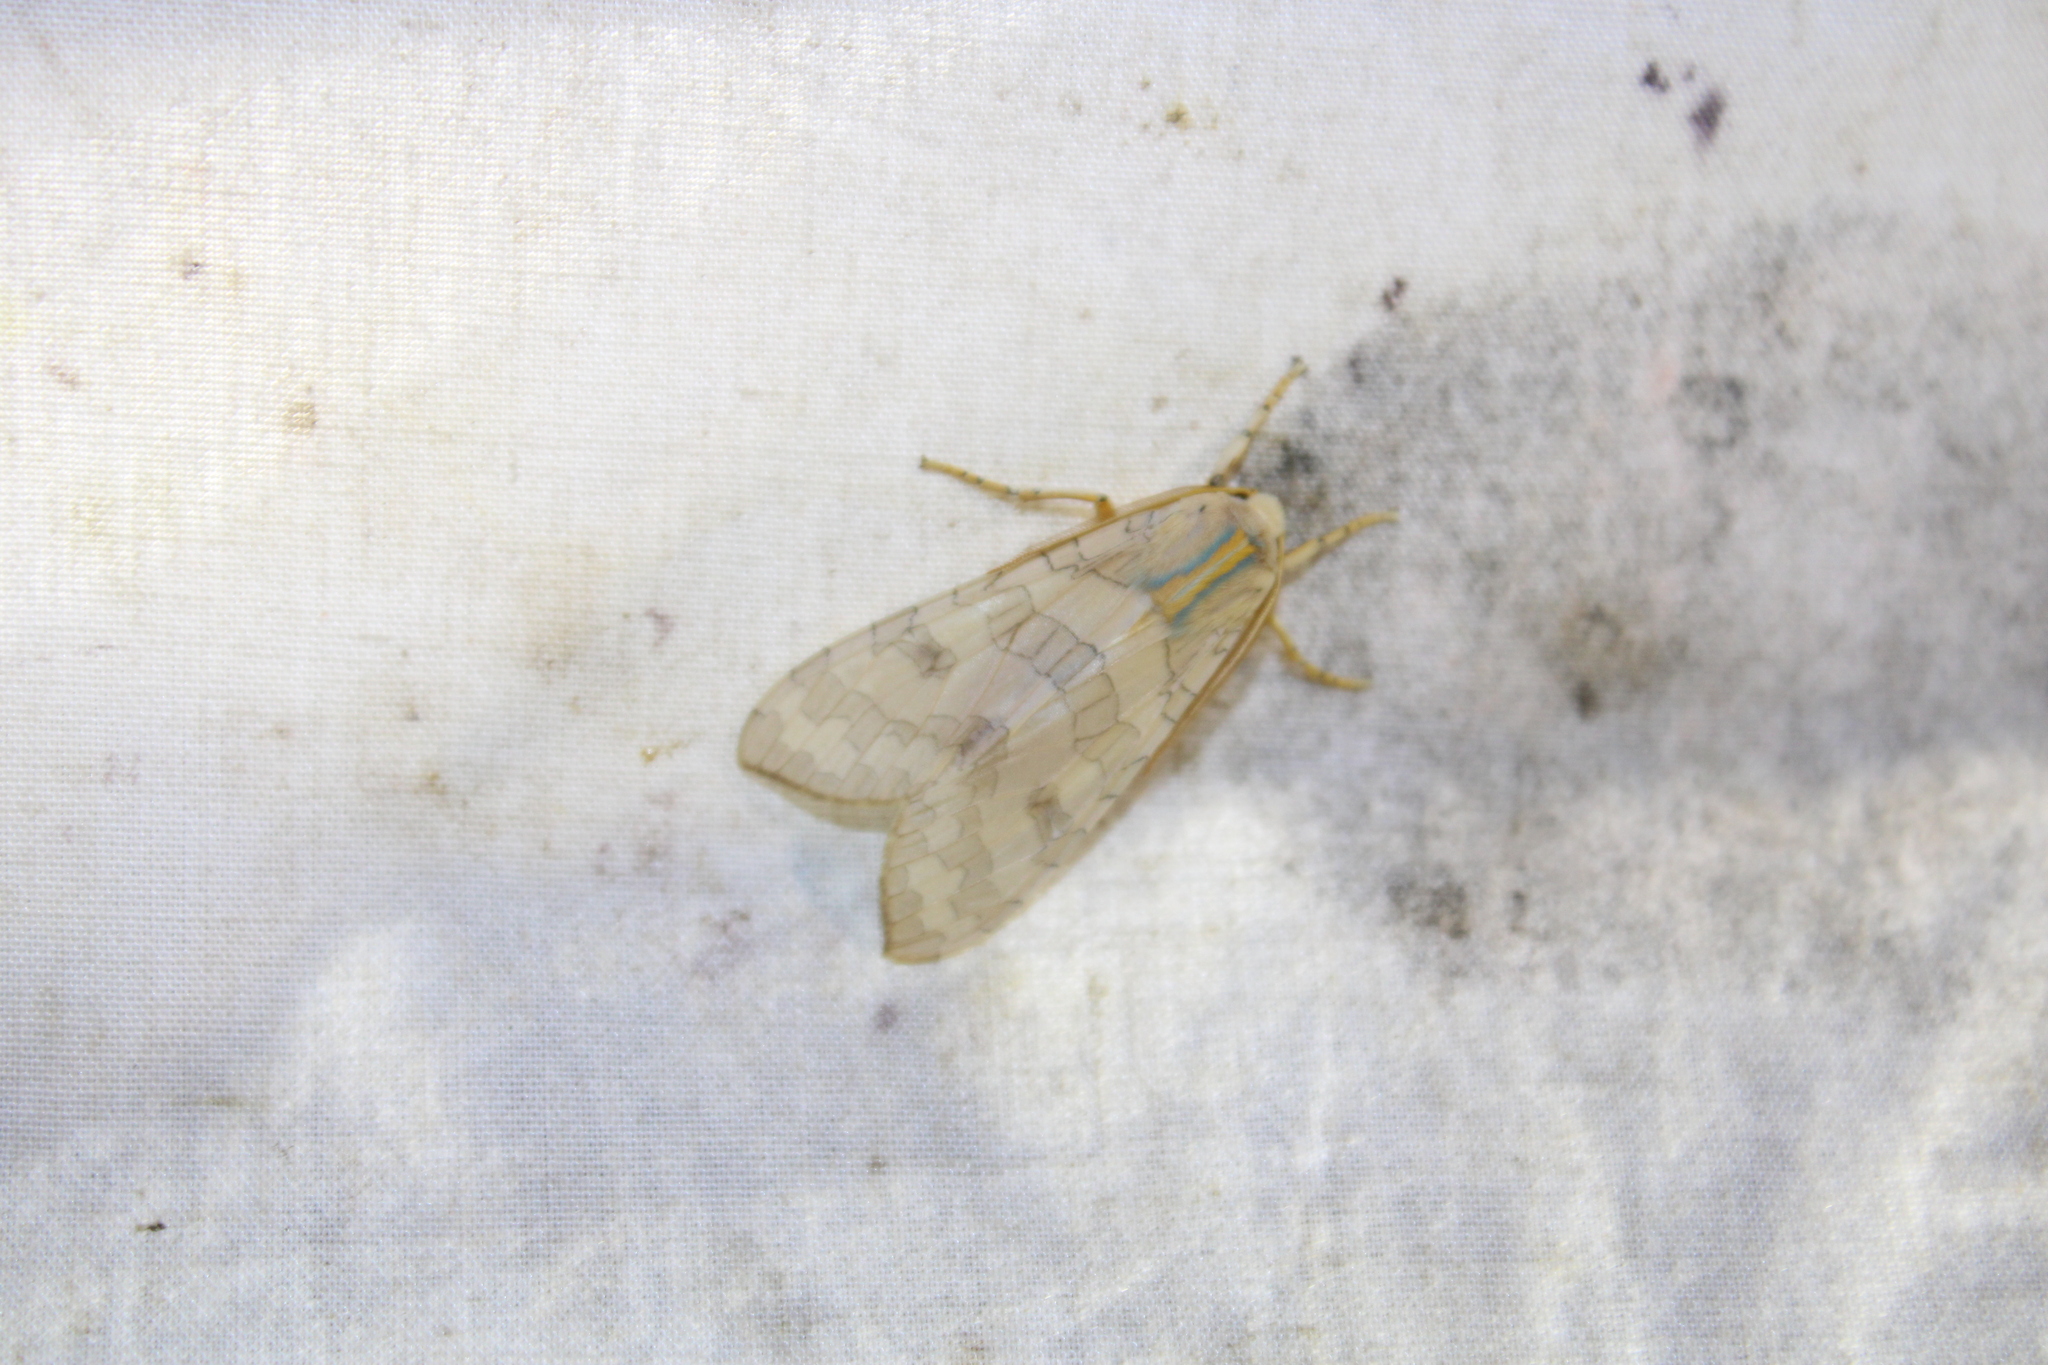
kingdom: Animalia
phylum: Arthropoda
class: Insecta
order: Lepidoptera
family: Erebidae
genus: Halysidota
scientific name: Halysidota
